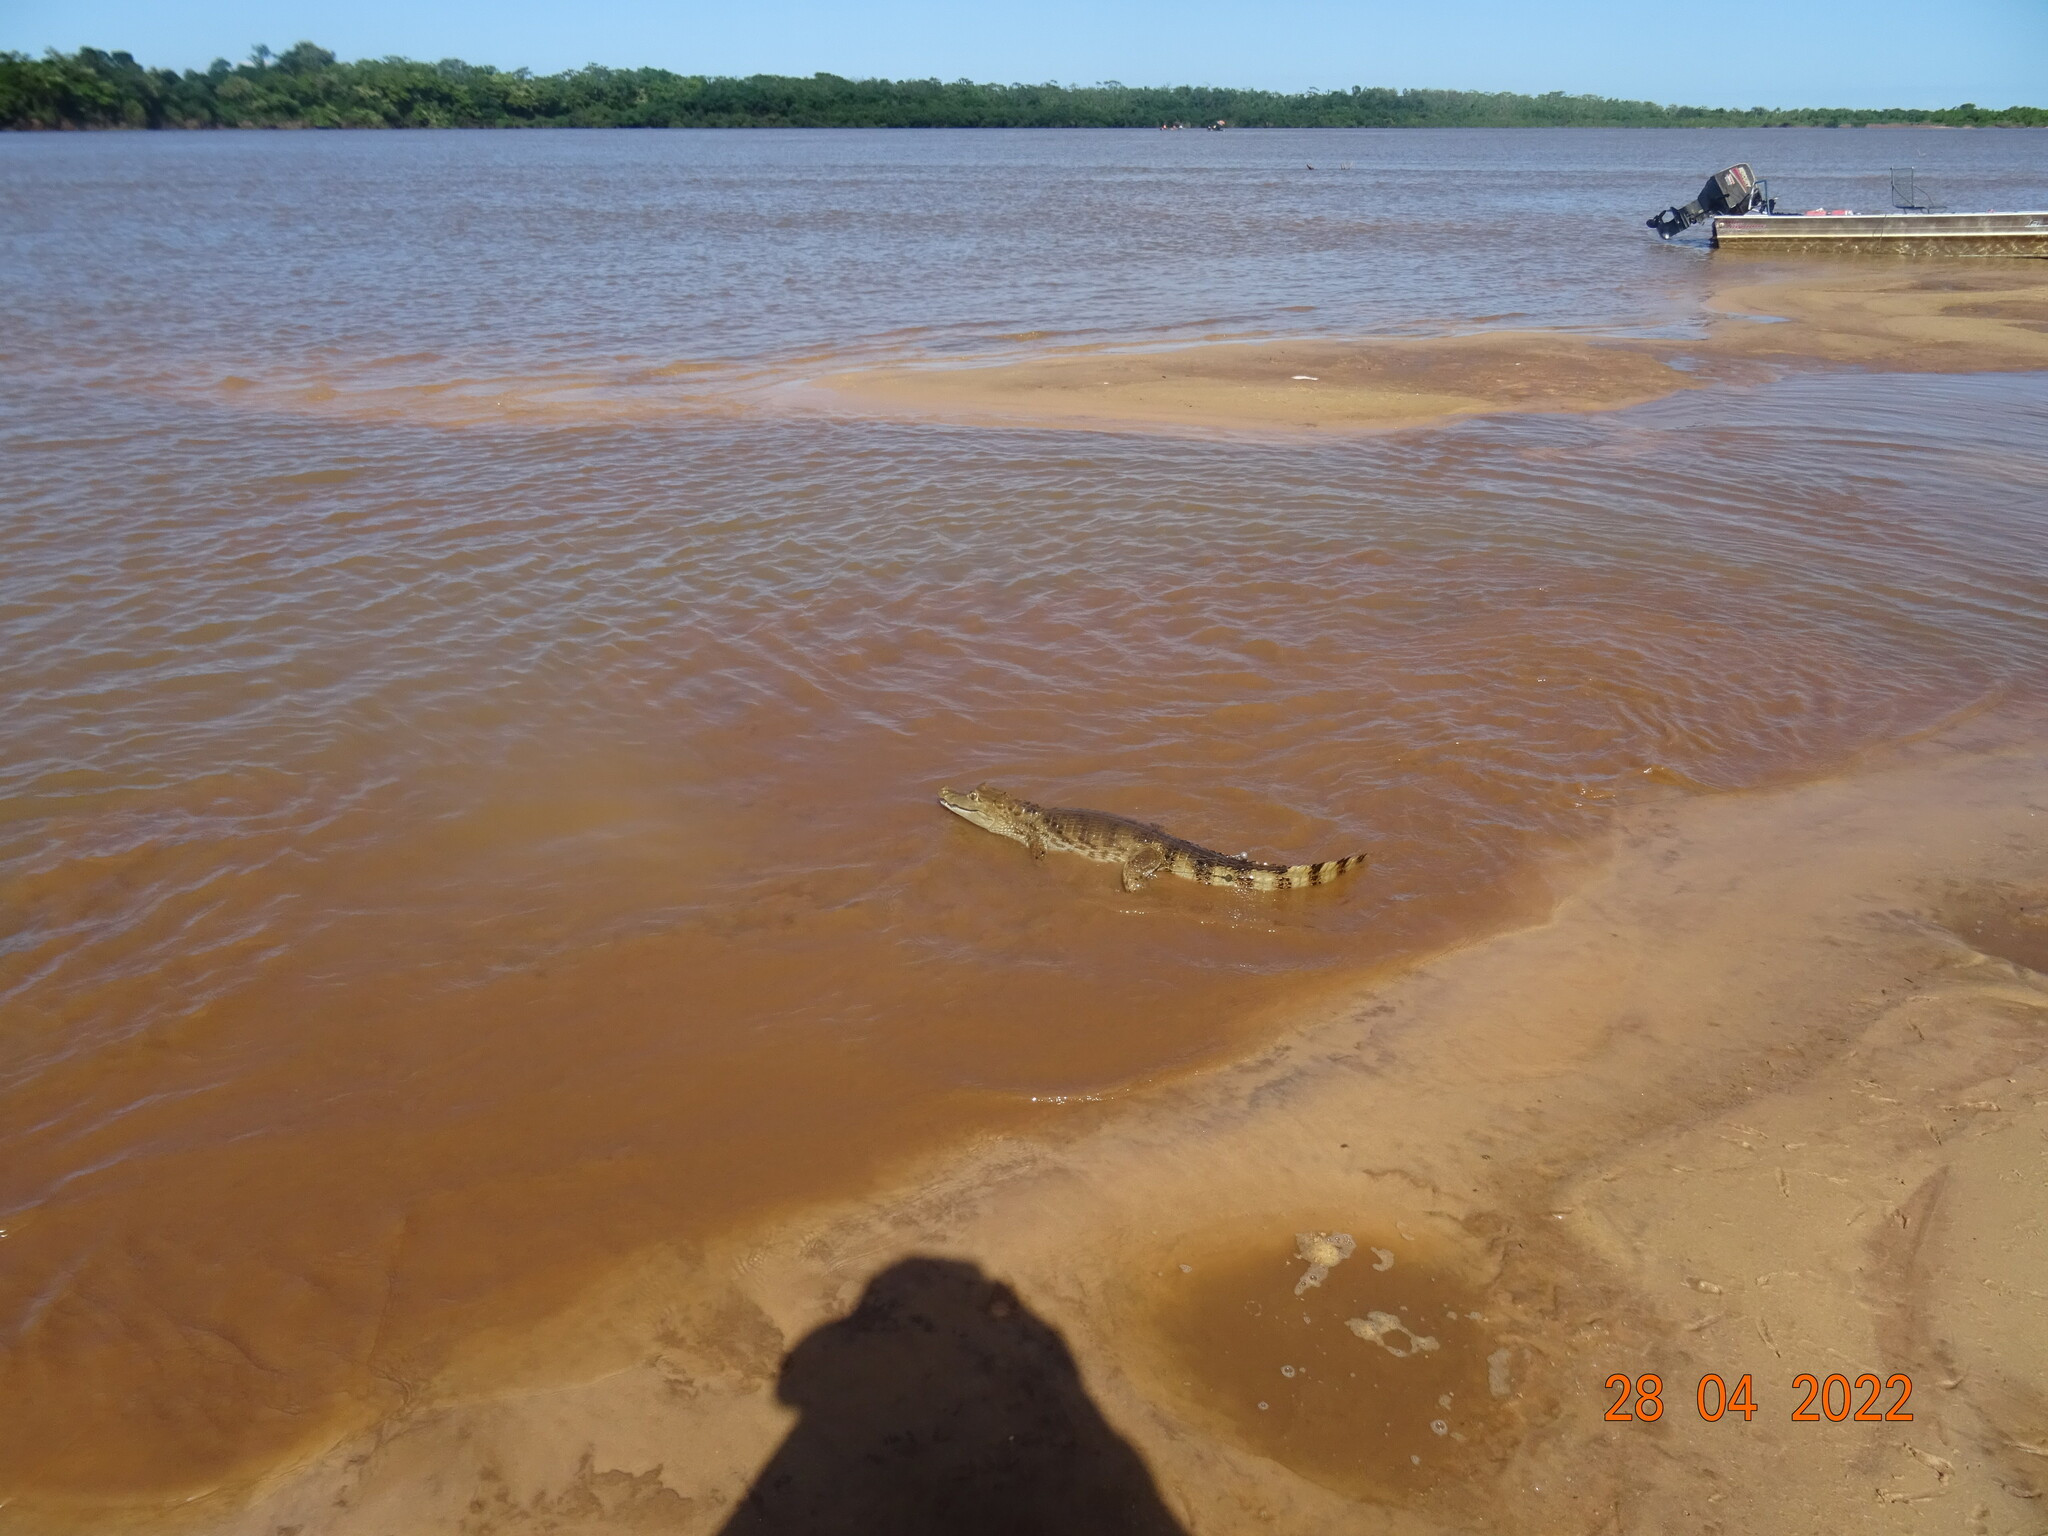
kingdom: Animalia
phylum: Chordata
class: Crocodylia
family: Alligatoridae
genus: Caiman
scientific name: Caiman crocodilus
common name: Common caiman
